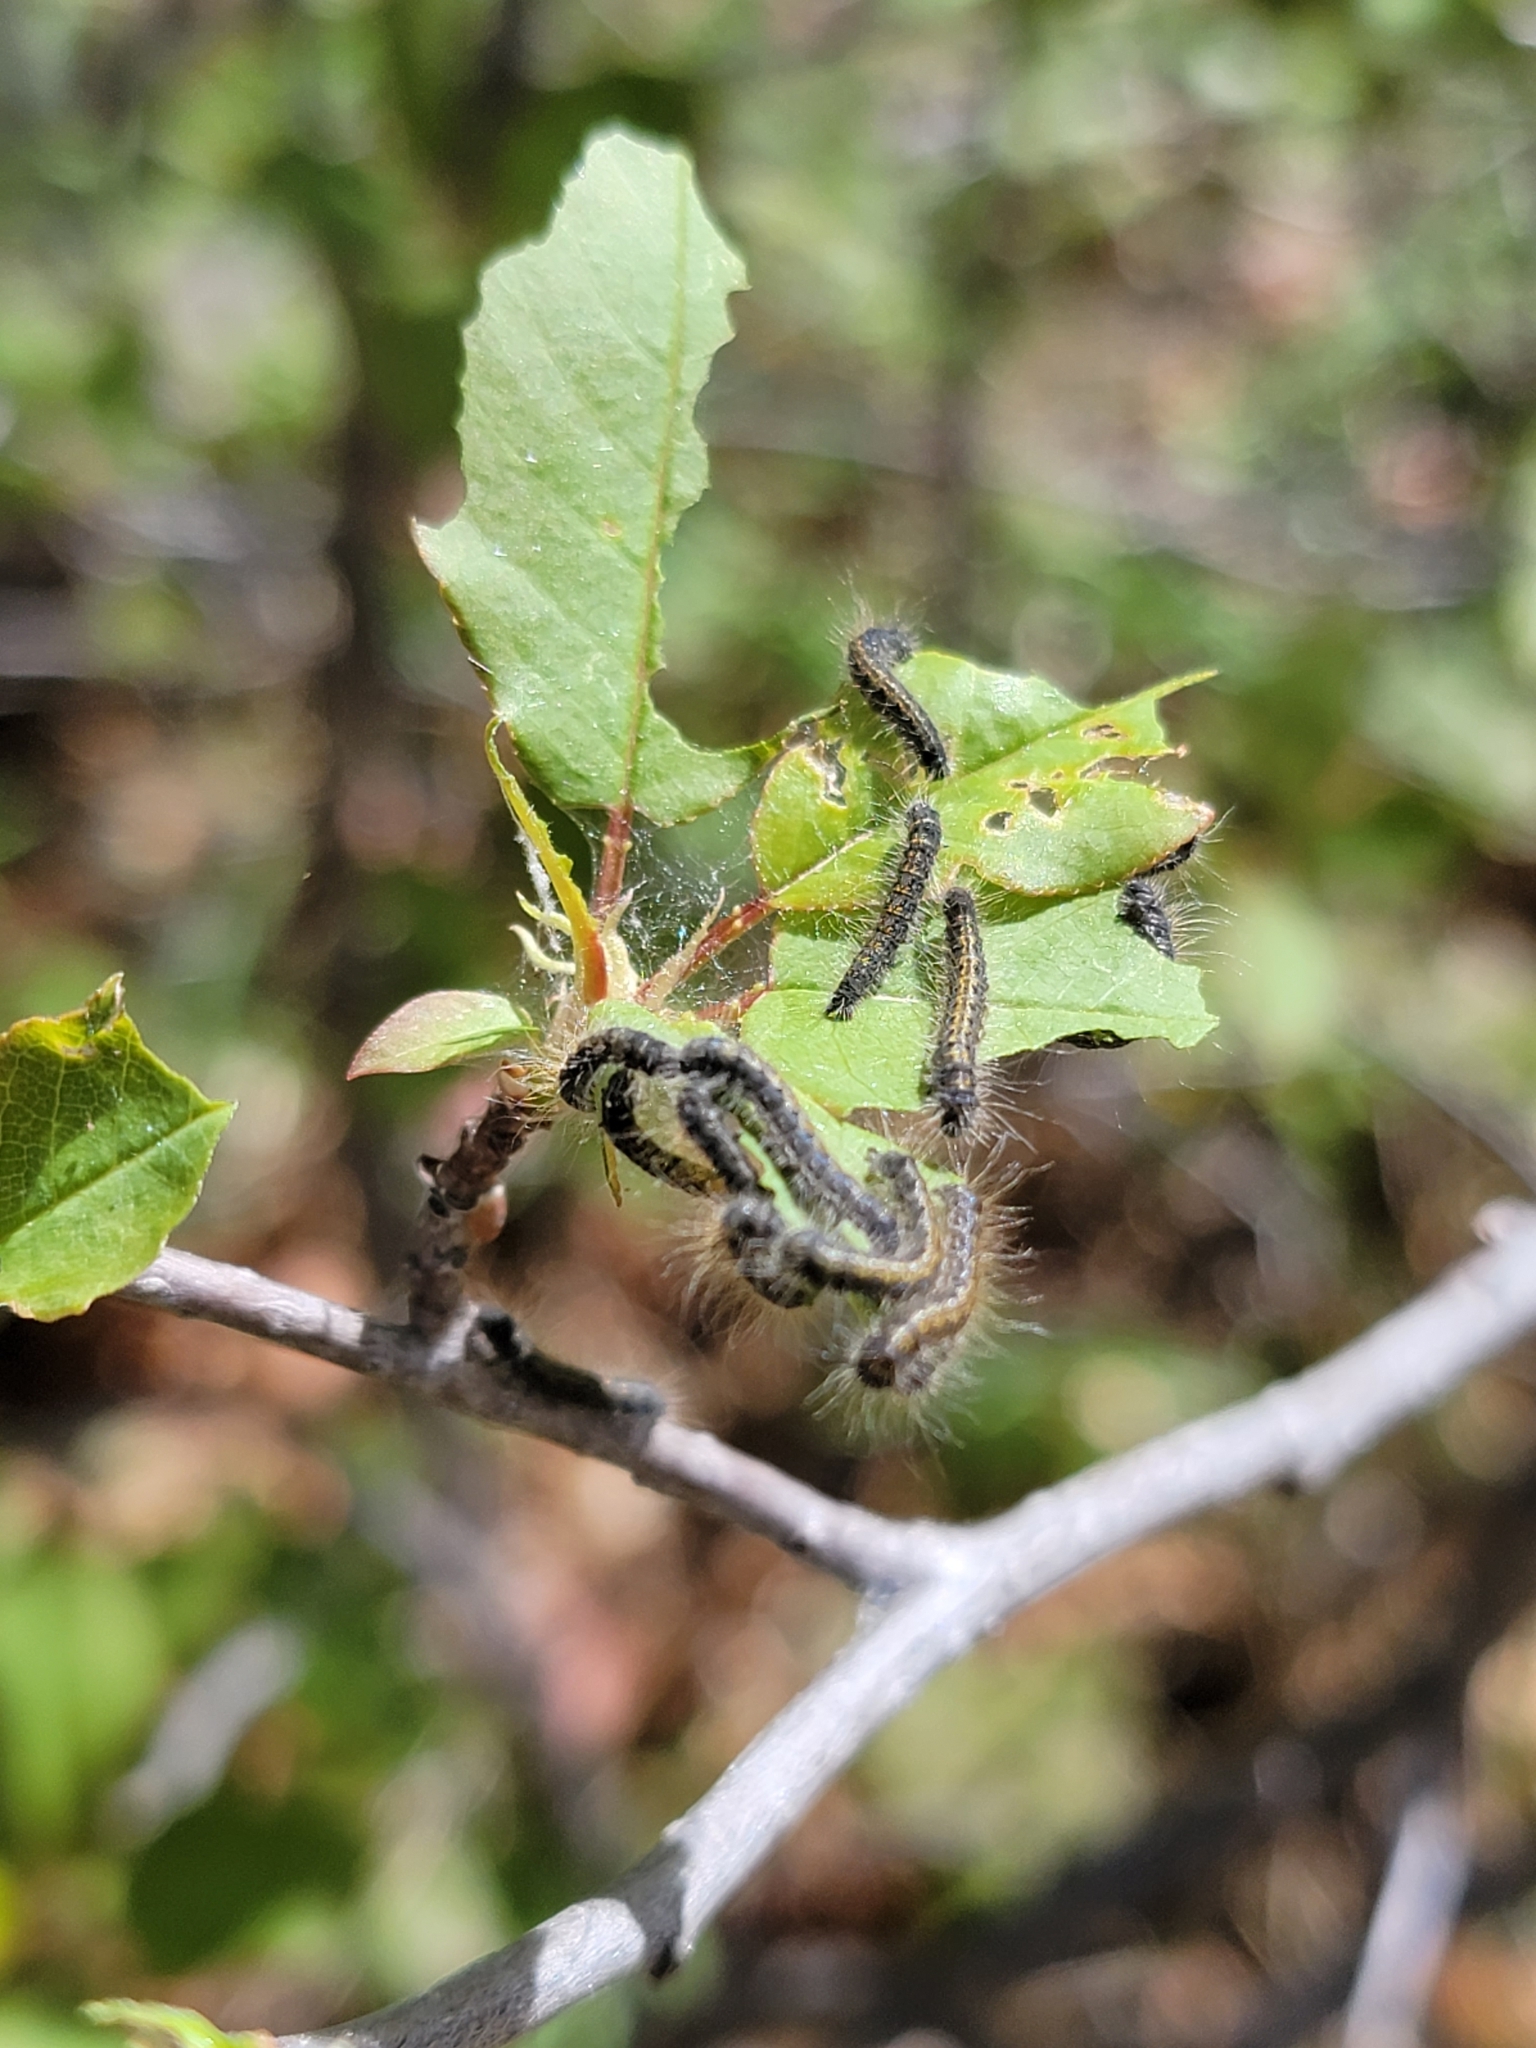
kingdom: Animalia
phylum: Arthropoda
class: Insecta
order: Lepidoptera
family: Lasiocampidae
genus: Malacosoma
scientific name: Malacosoma californica
